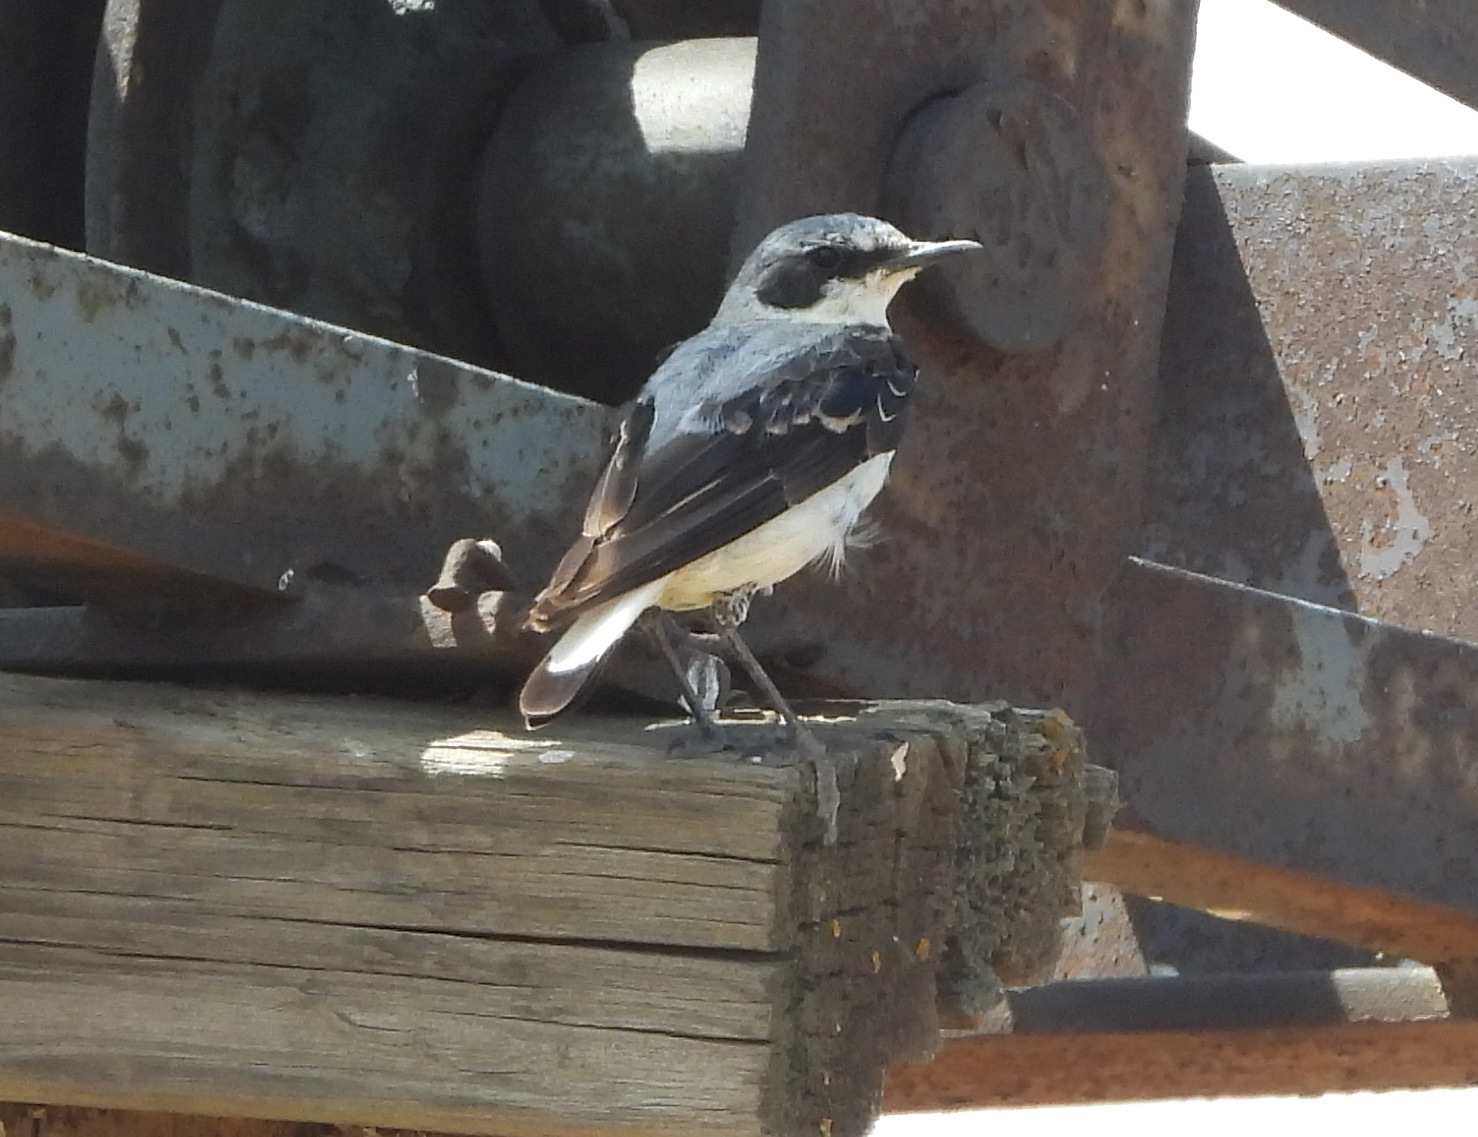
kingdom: Animalia
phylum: Chordata
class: Aves
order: Passeriformes
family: Muscicapidae
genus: Oenanthe
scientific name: Oenanthe oenanthe
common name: Northern wheatear
